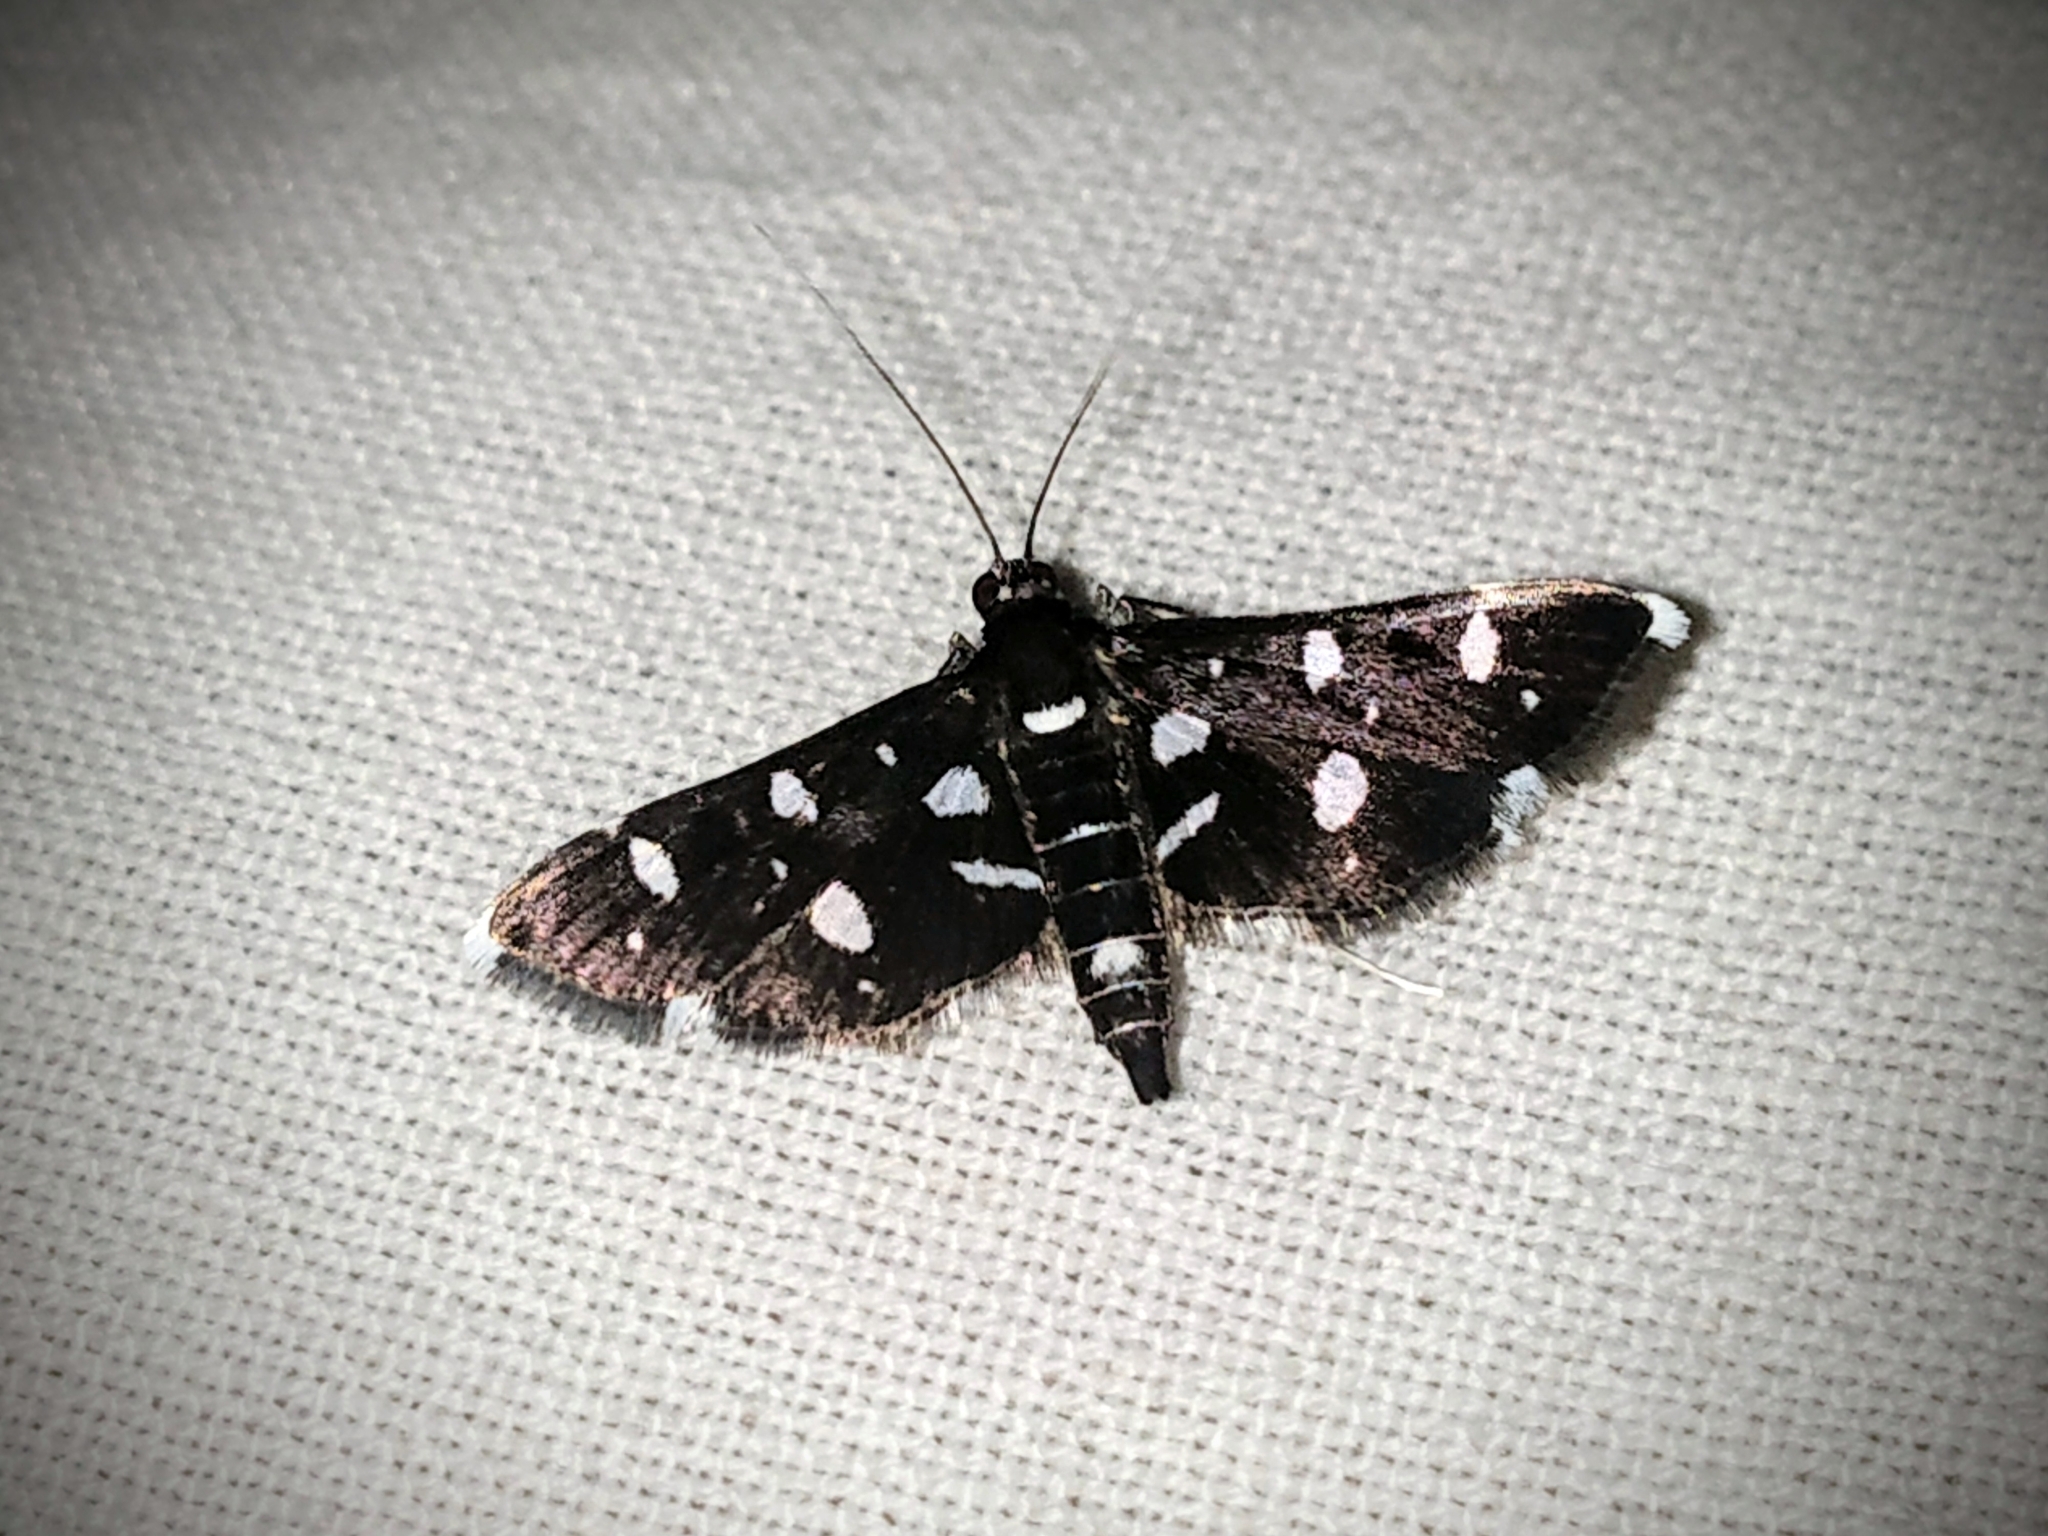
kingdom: Animalia
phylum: Arthropoda
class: Insecta
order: Lepidoptera
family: Crambidae
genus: Bocchoris
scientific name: Bocchoris inspersalis
